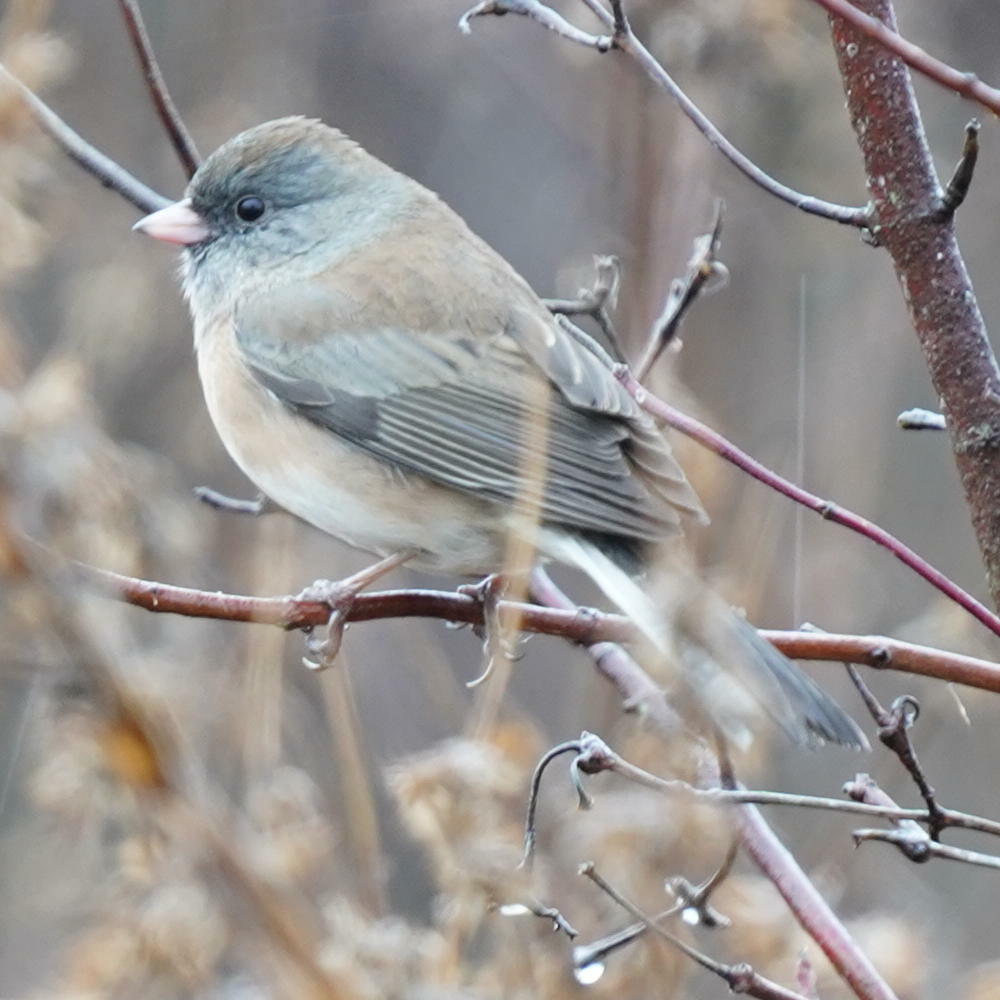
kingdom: Animalia
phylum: Chordata
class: Aves
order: Passeriformes
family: Passerellidae
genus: Junco
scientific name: Junco hyemalis
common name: Dark-eyed junco
